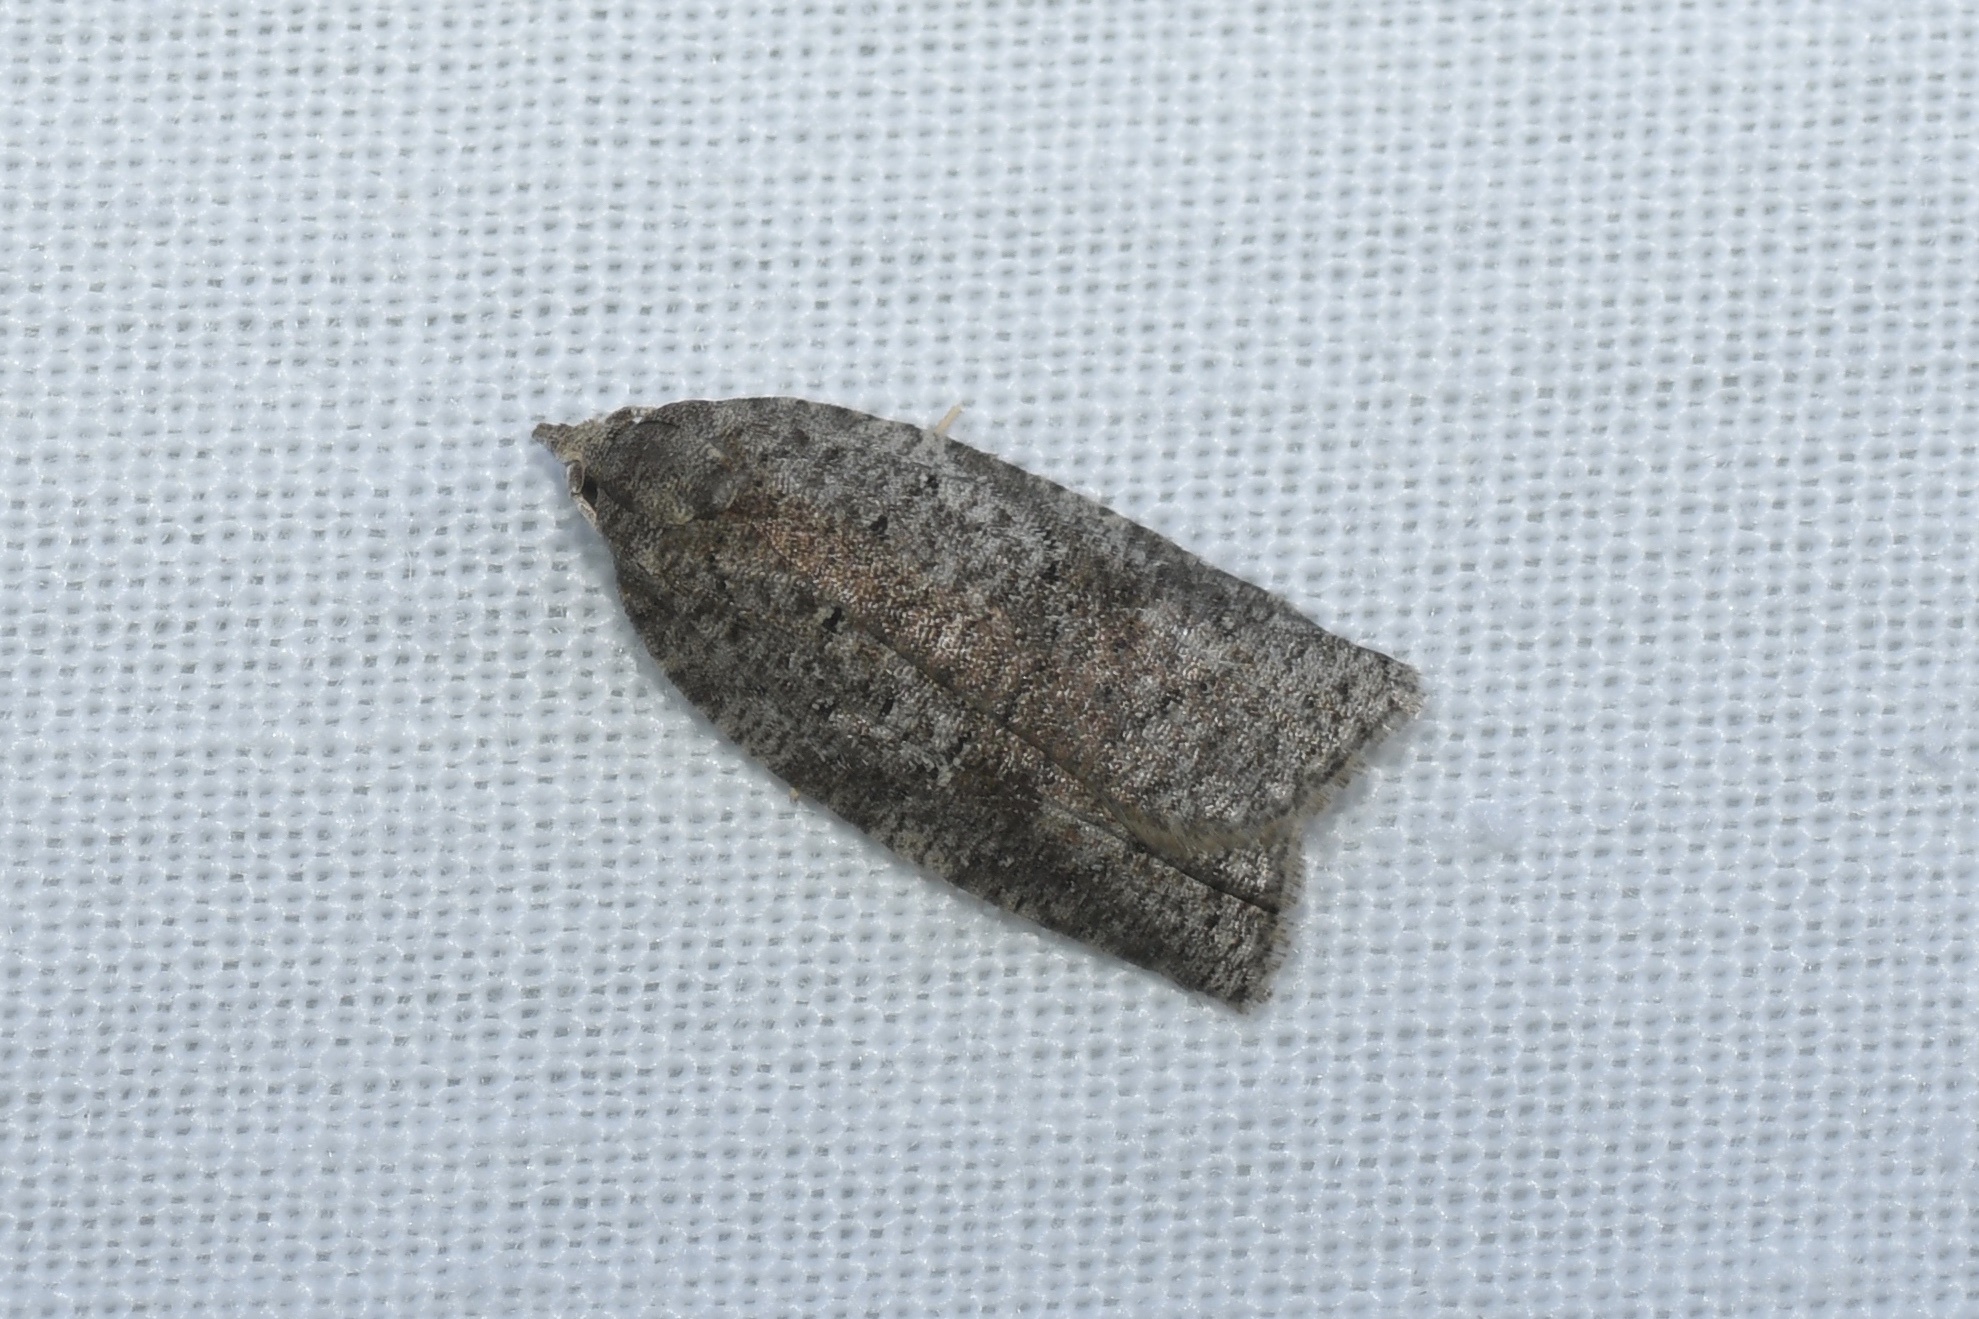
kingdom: Animalia
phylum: Arthropoda
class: Insecta
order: Lepidoptera
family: Tortricidae
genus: Amorbia
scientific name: Amorbia humerosana
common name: White-lined leafroller moth
